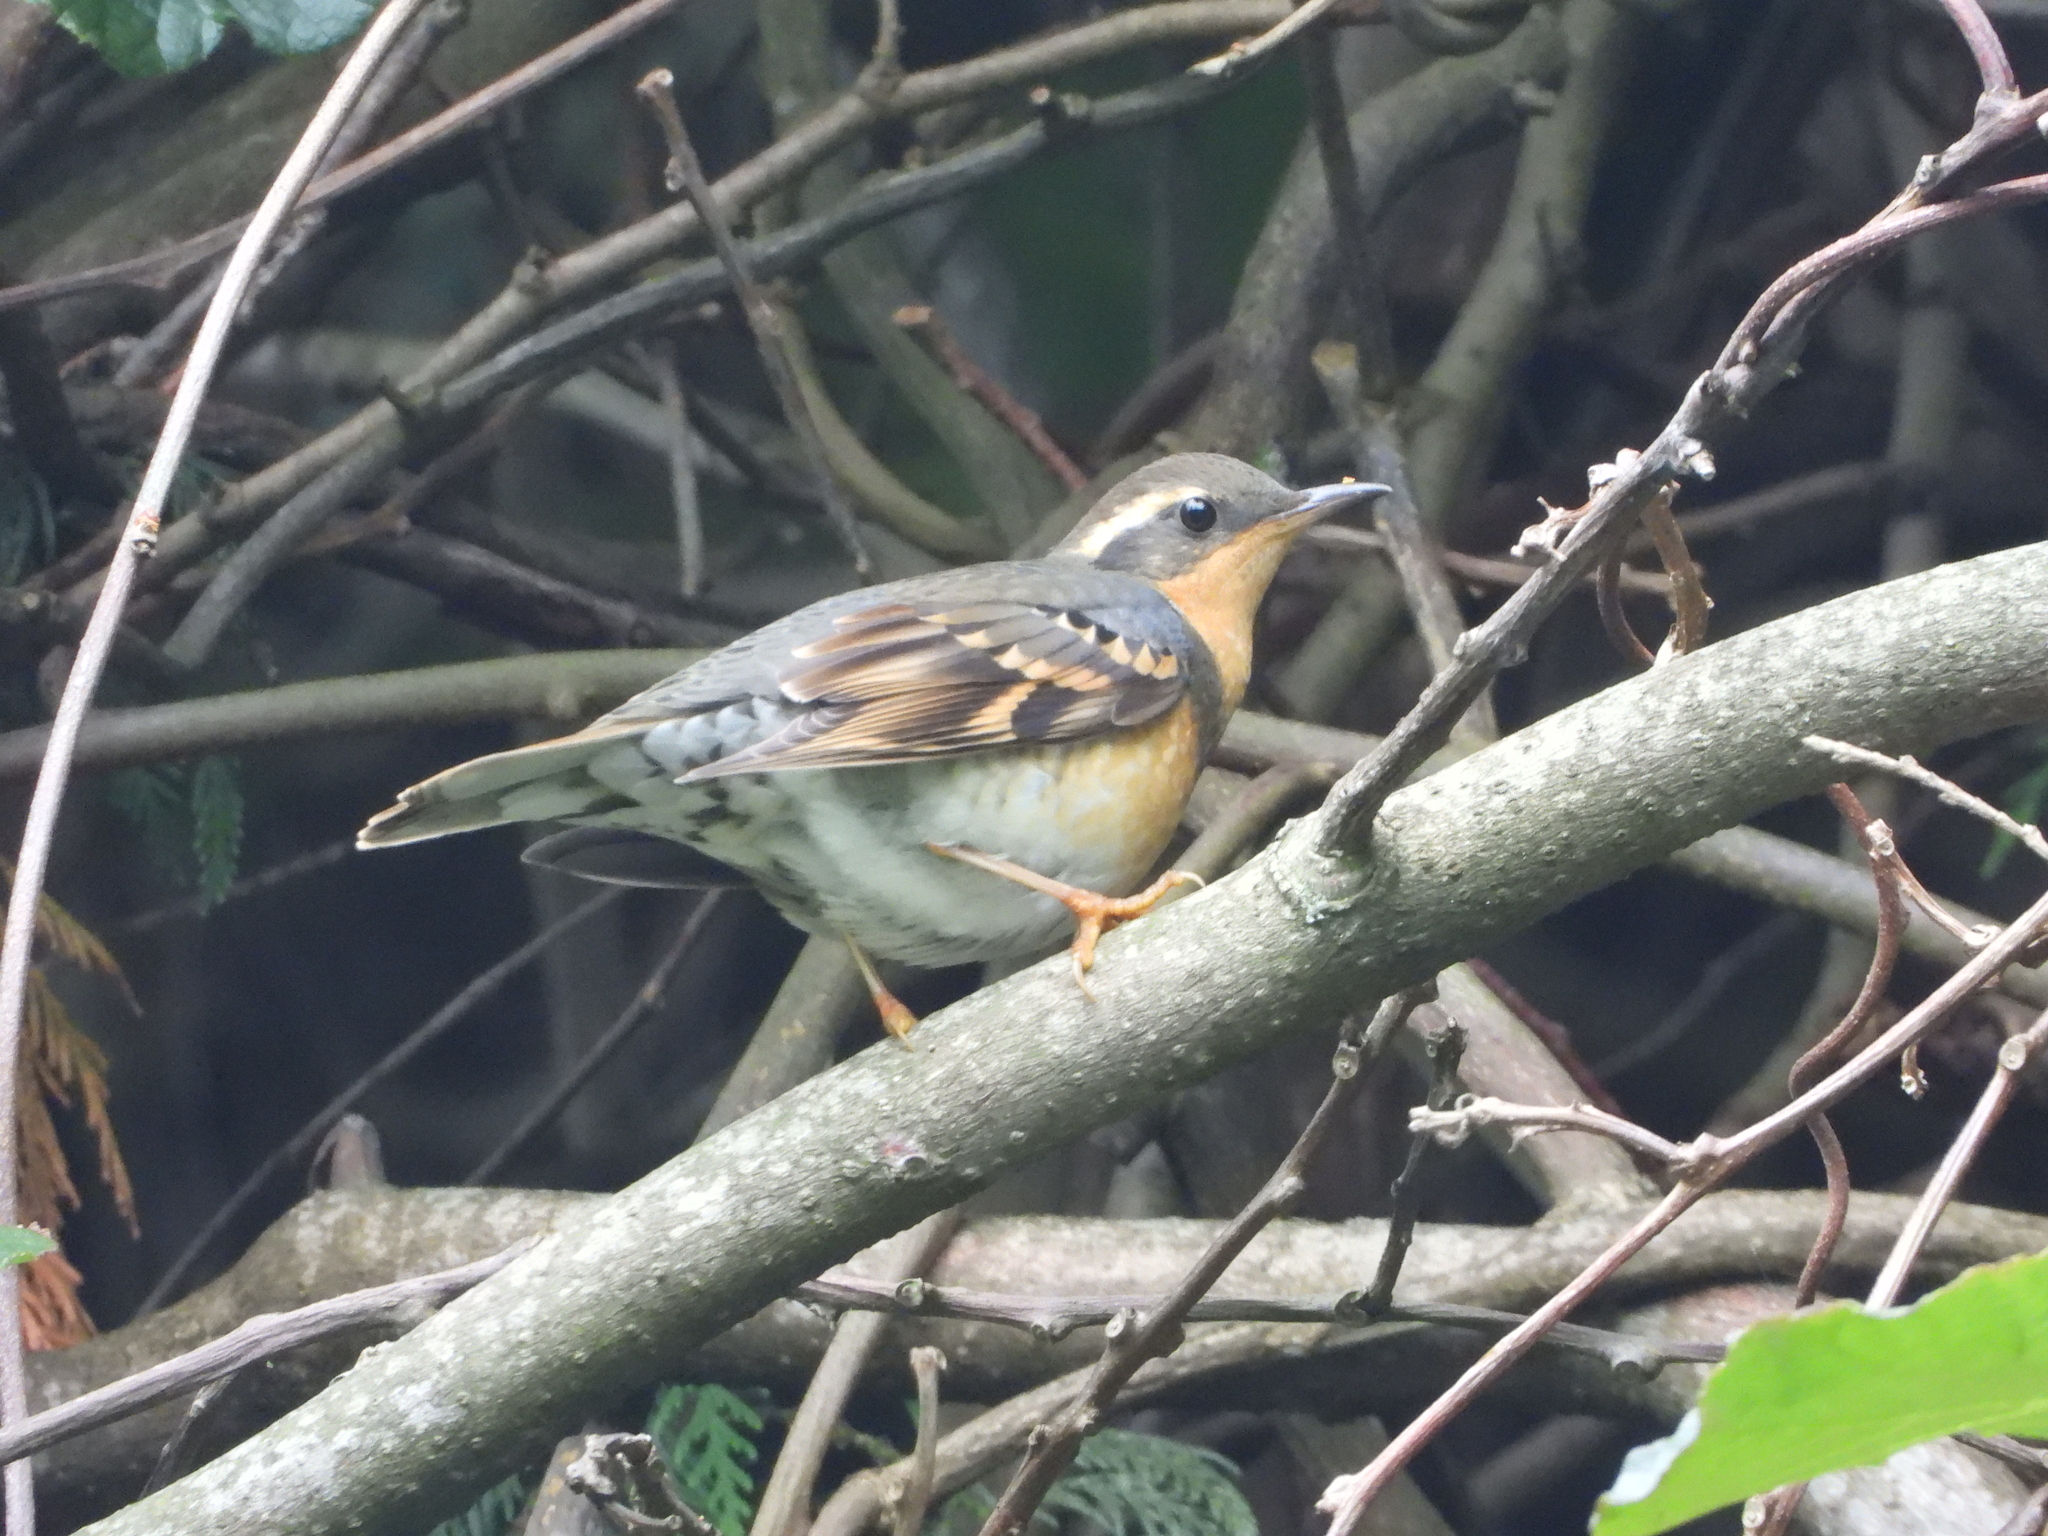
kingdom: Animalia
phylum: Chordata
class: Aves
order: Passeriformes
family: Turdidae
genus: Ixoreus
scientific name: Ixoreus naevius
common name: Varied thrush
